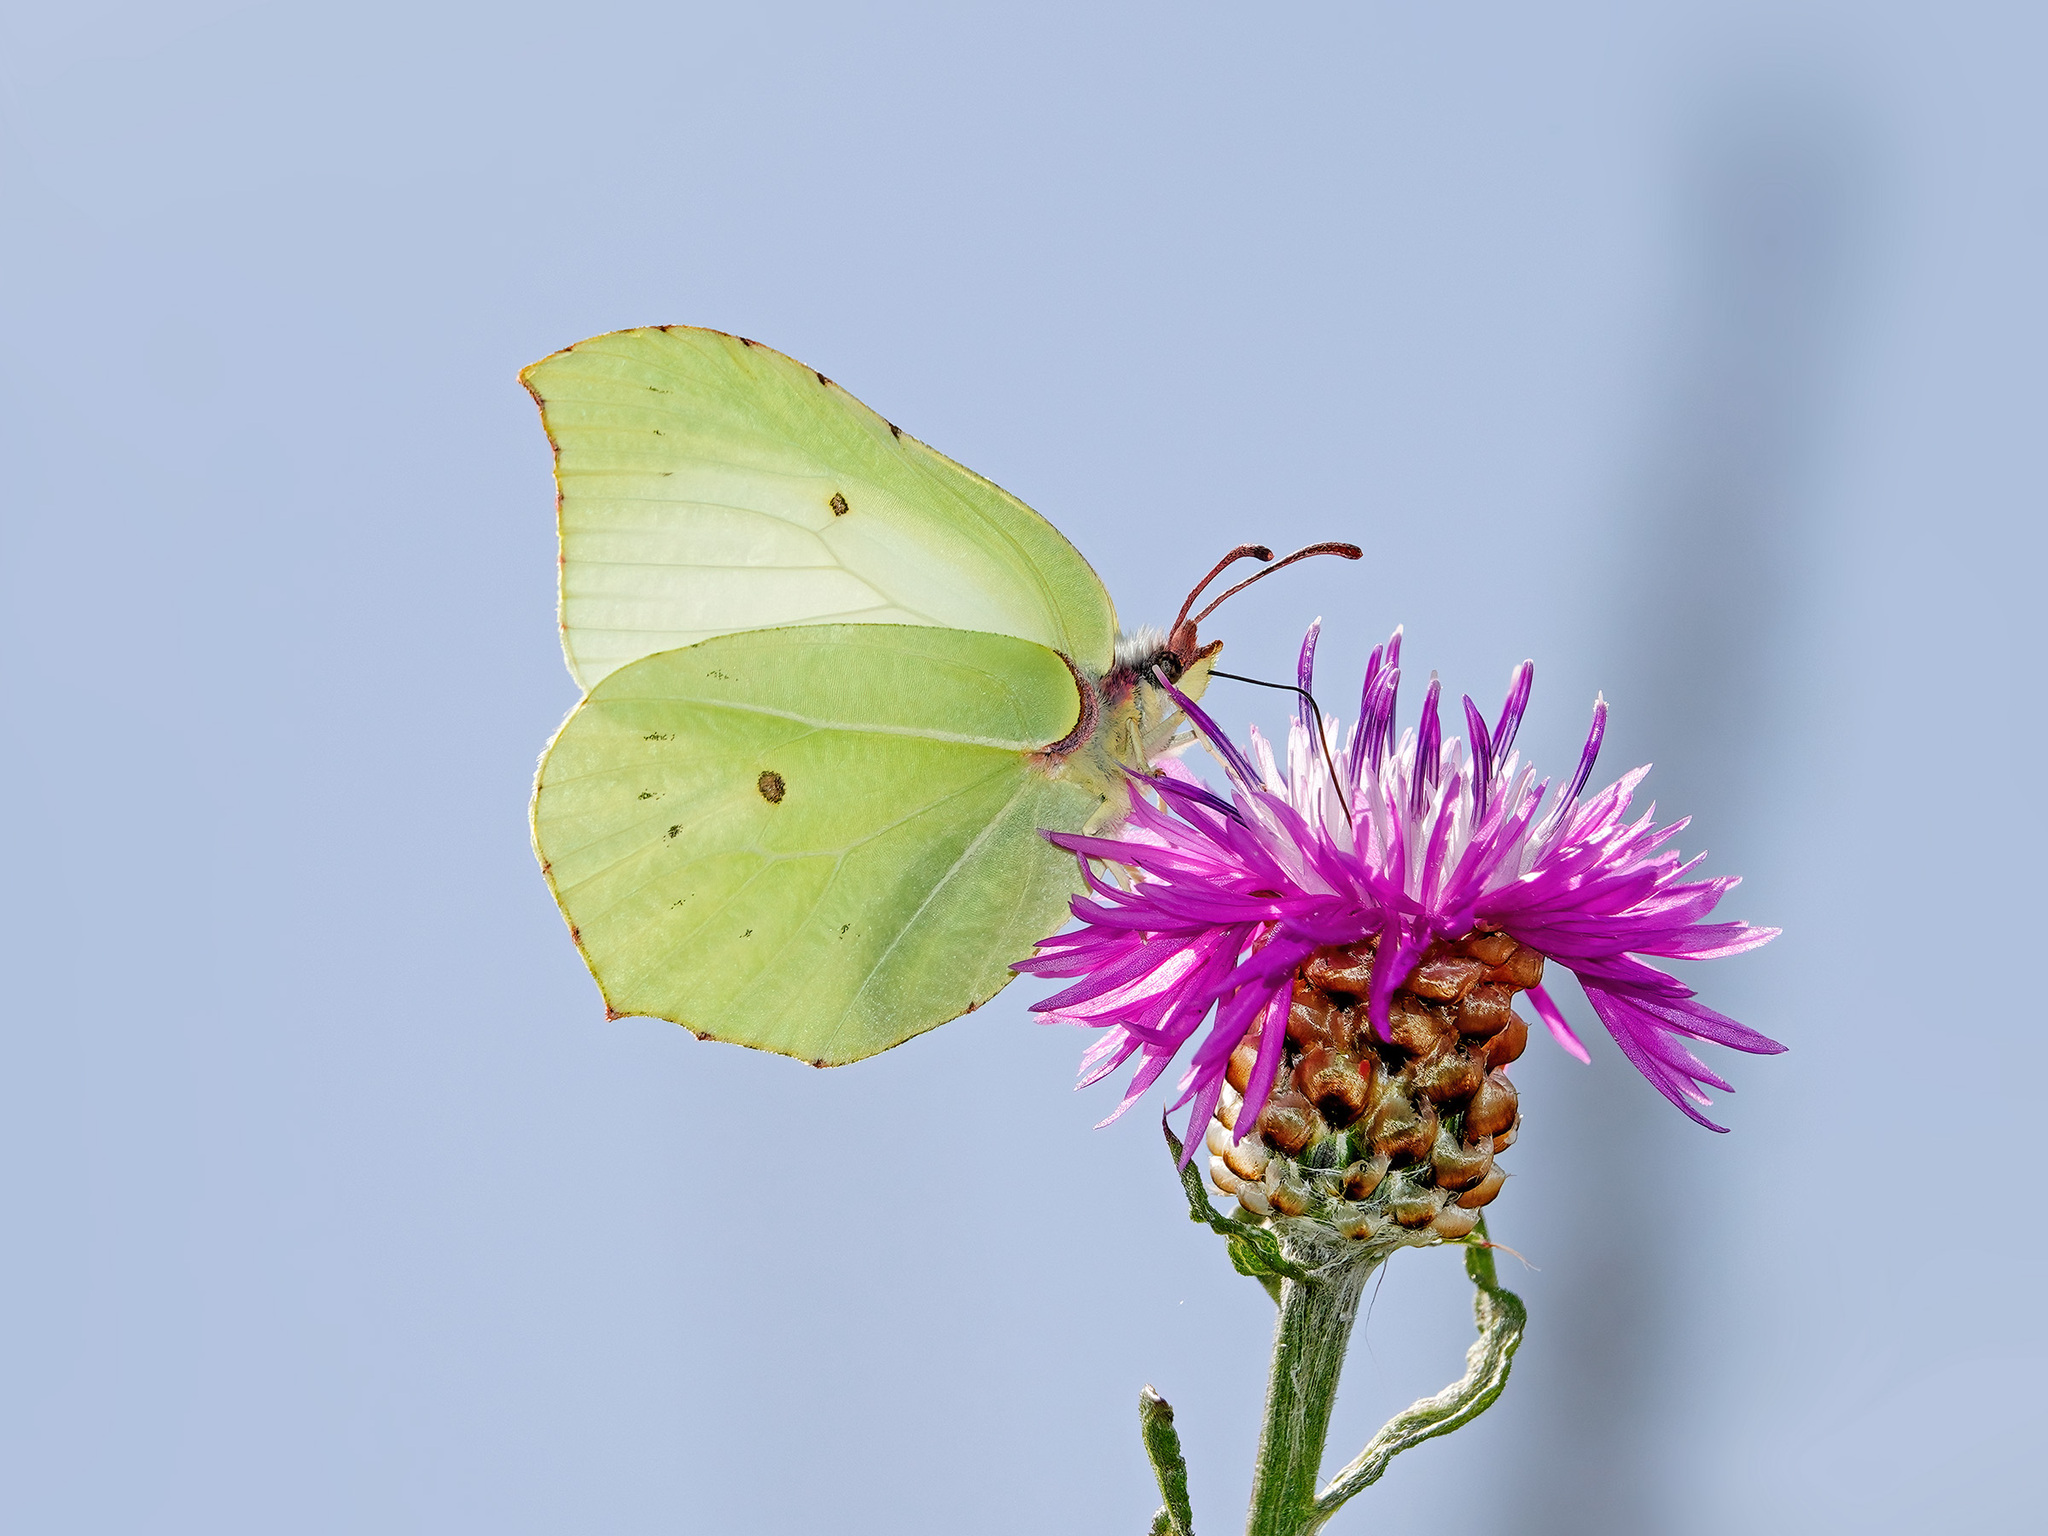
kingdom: Animalia
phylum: Arthropoda
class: Insecta
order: Lepidoptera
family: Pieridae
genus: Gonepteryx
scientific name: Gonepteryx rhamni
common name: Brimstone
